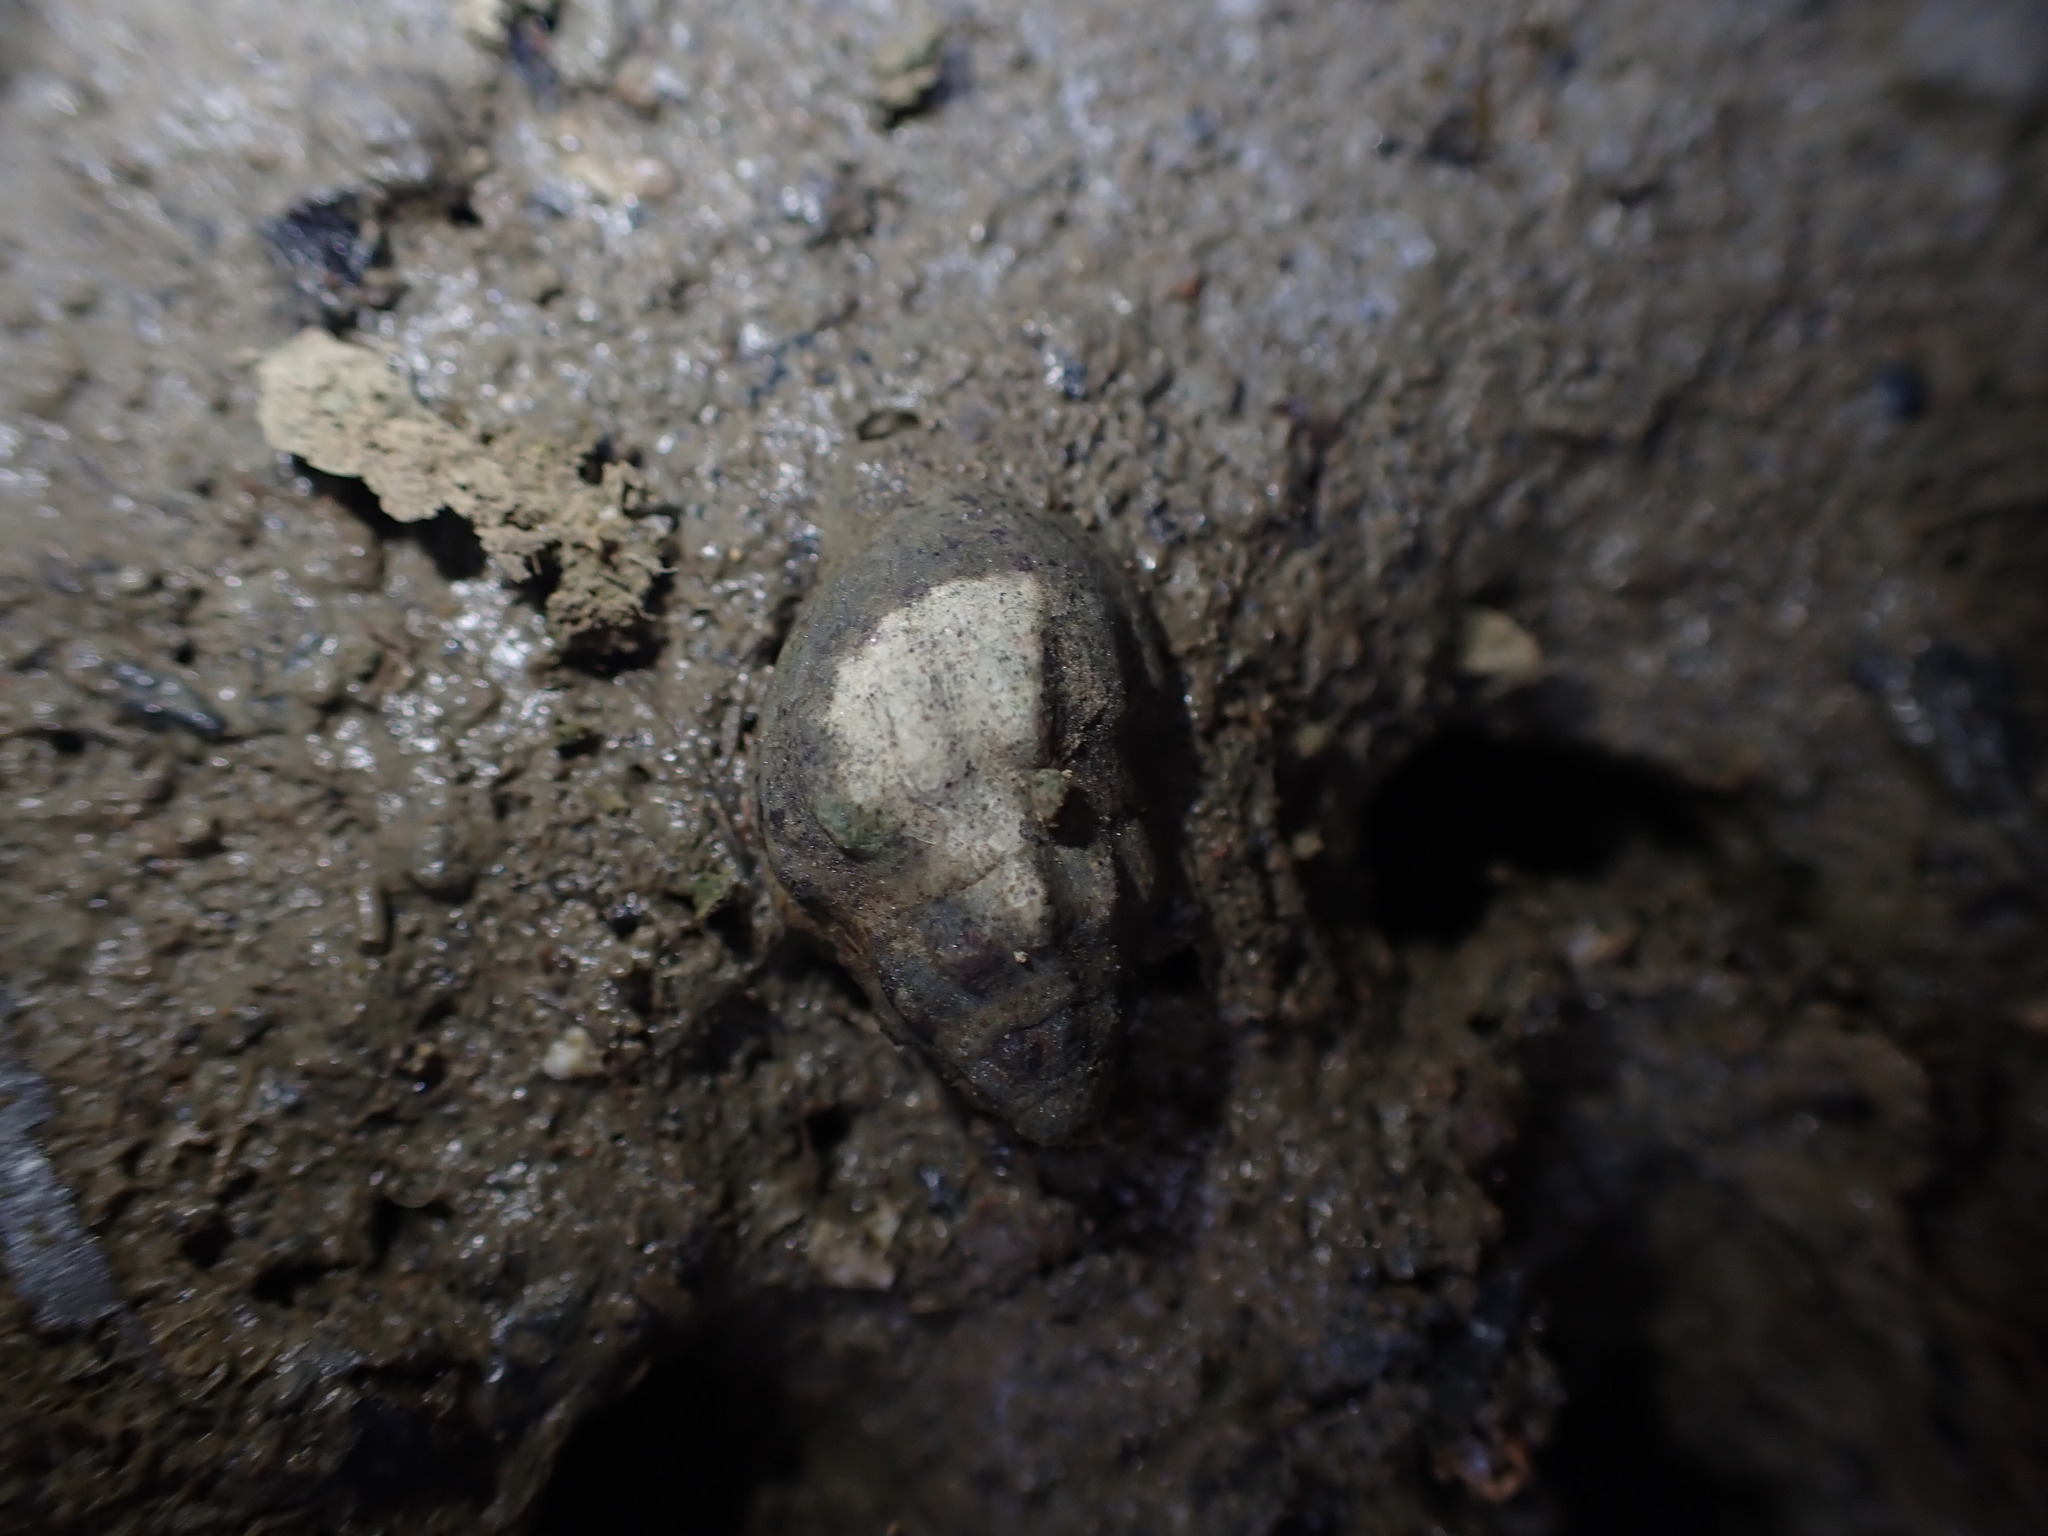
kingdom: Animalia
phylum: Mollusca
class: Gastropoda
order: Neogastropoda
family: Cominellidae
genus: Cominella
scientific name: Cominella glandiformis
